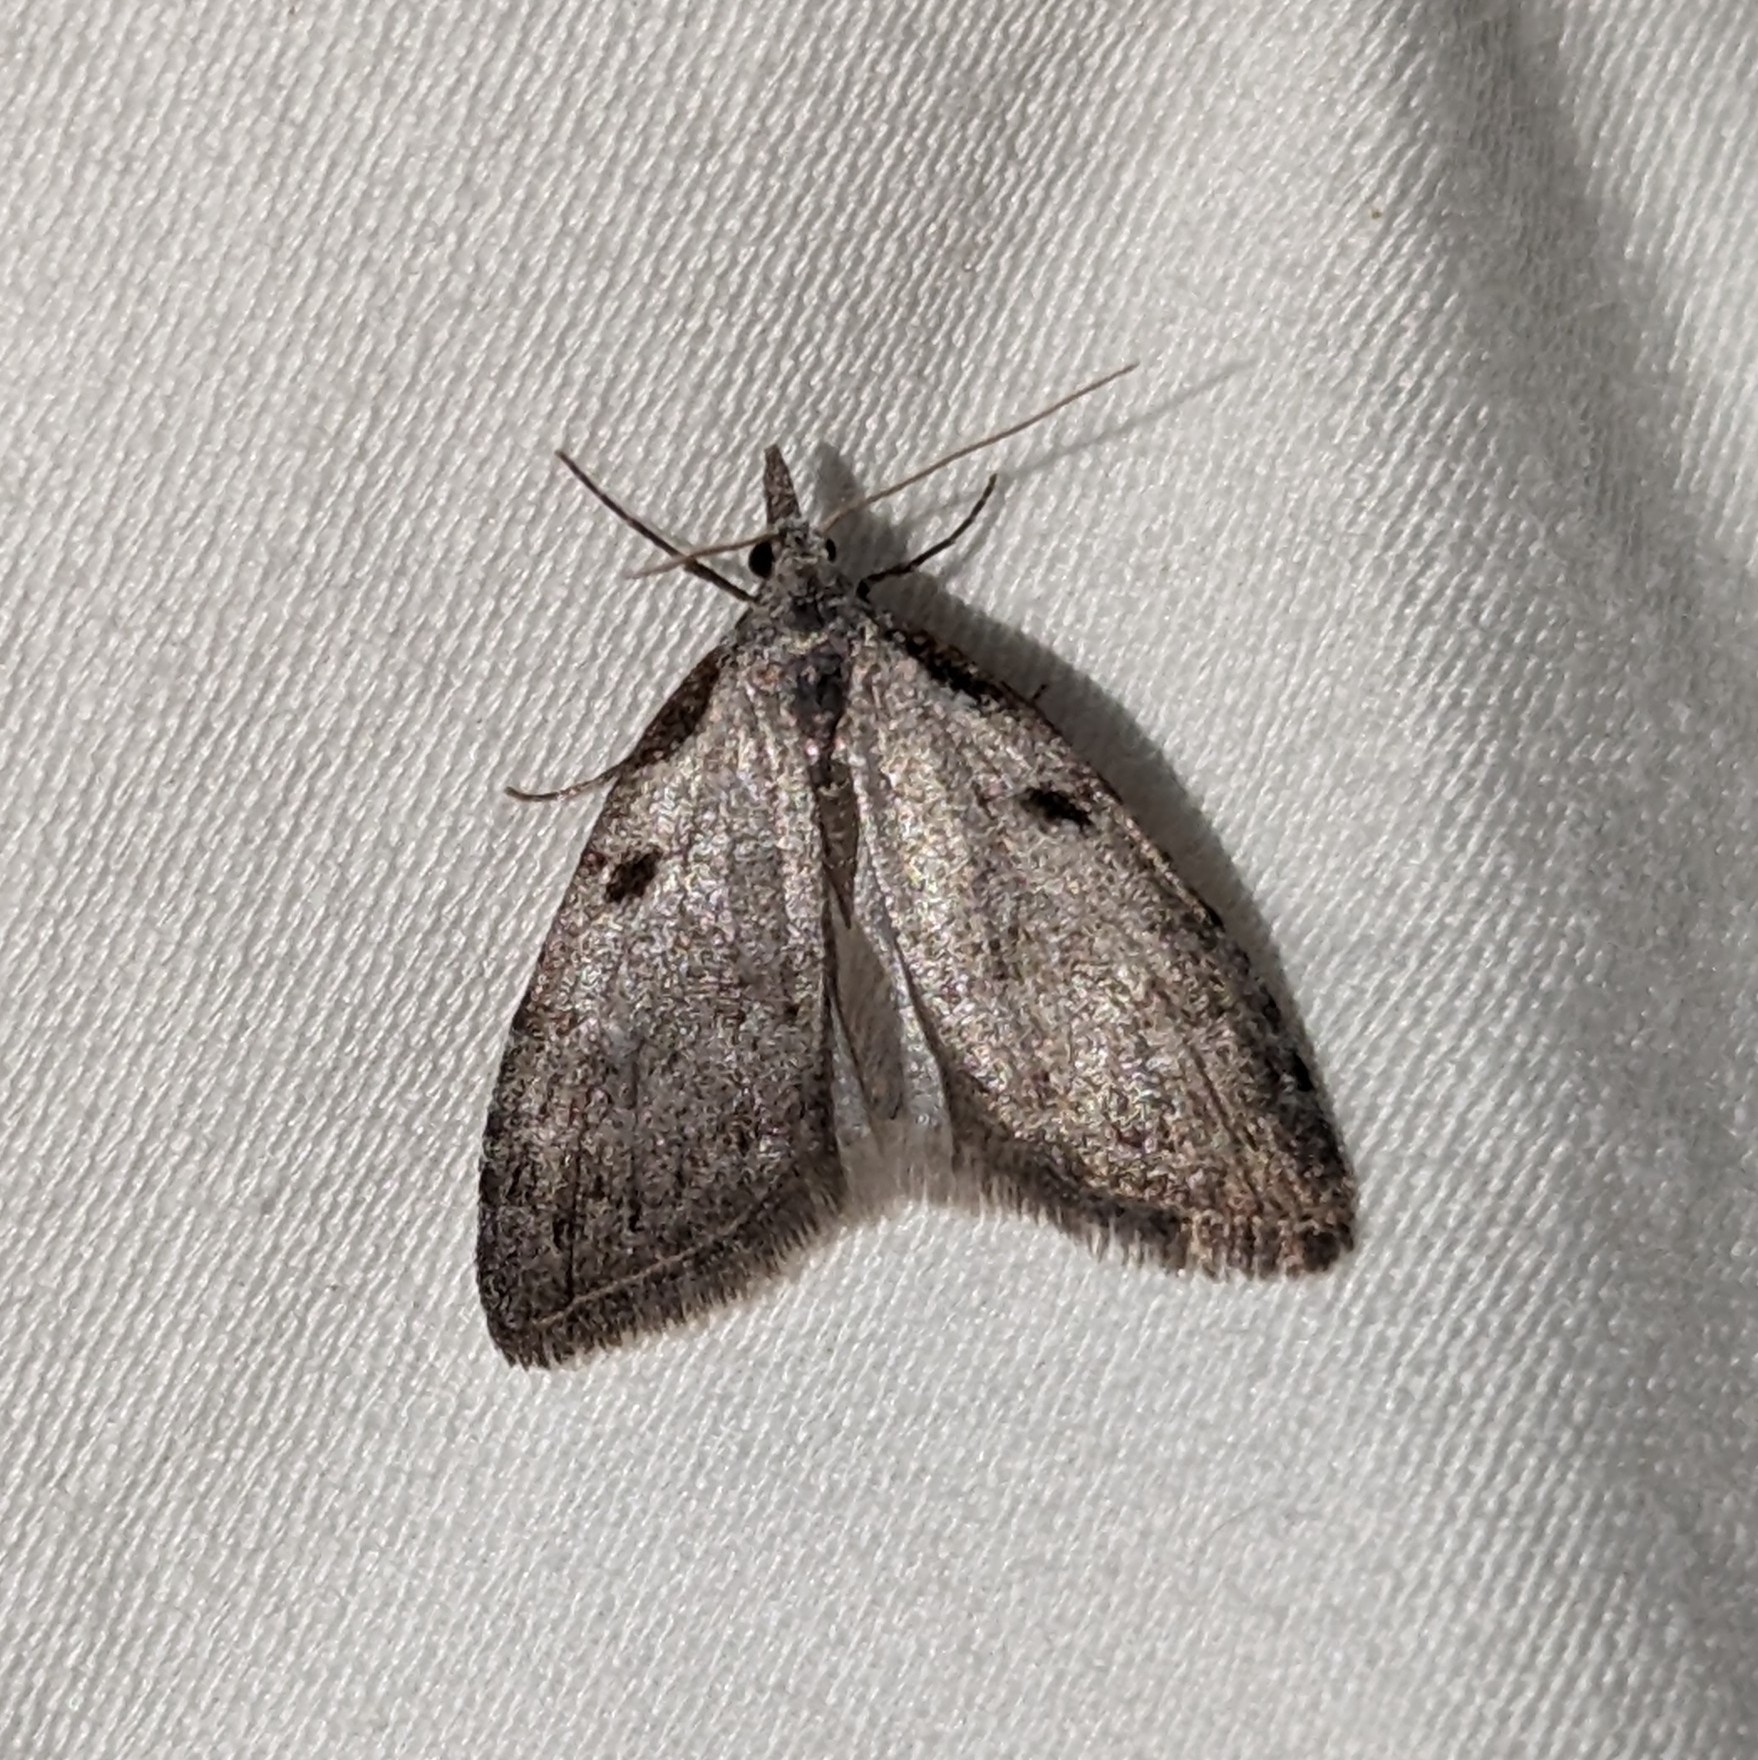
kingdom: Animalia
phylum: Arthropoda
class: Insecta
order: Lepidoptera
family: Nolidae
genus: Nola
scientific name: Nola minna
